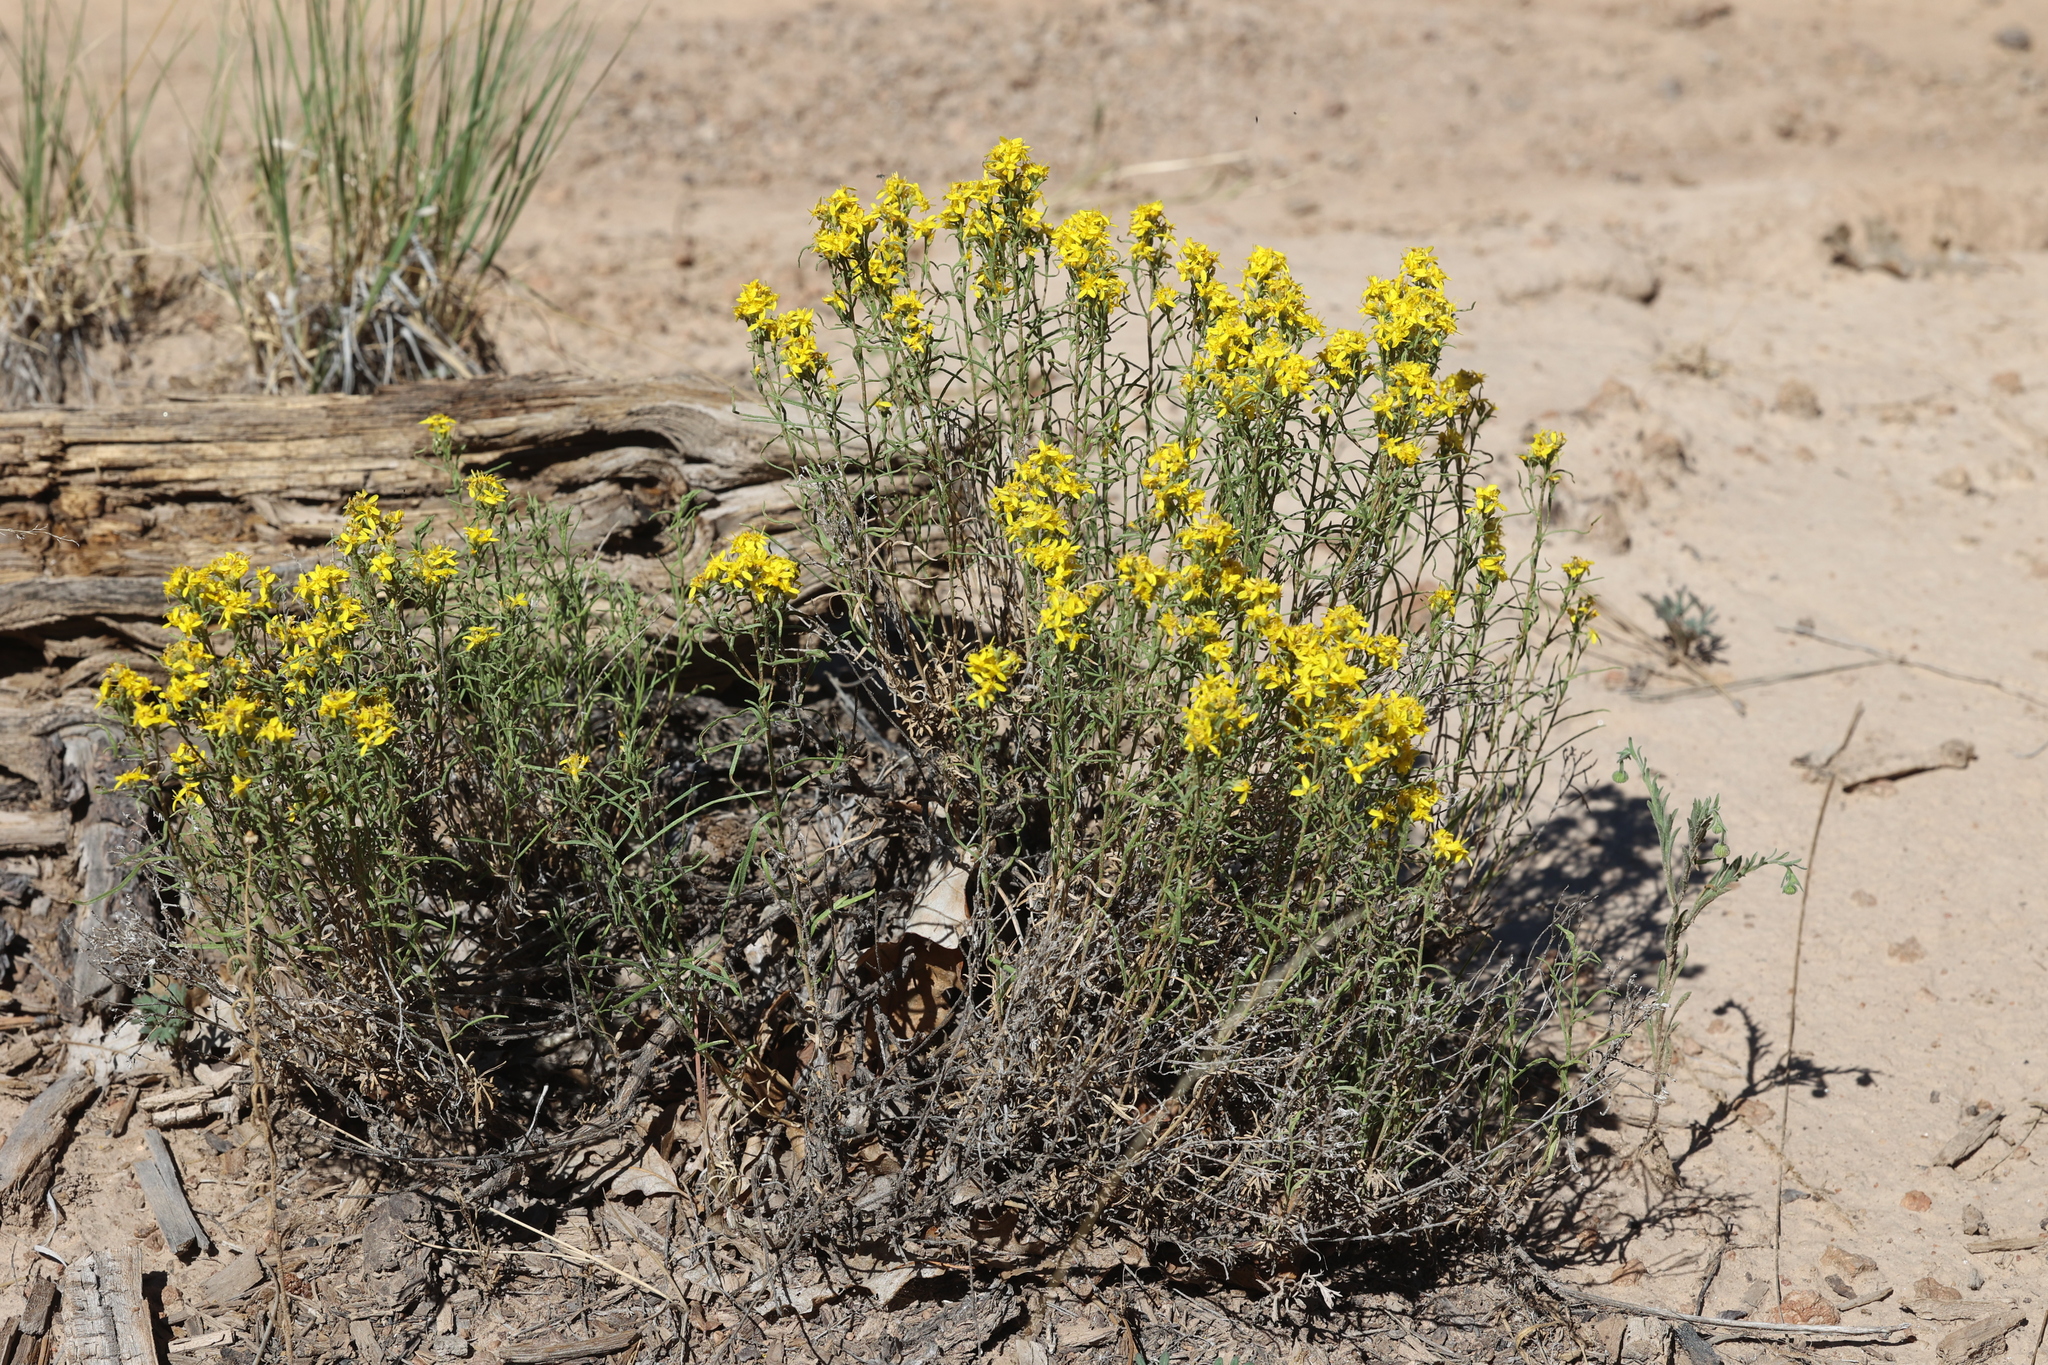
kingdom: Plantae
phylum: Tracheophyta
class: Magnoliopsida
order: Asterales
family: Asteraceae
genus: Gutierrezia
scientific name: Gutierrezia sarothrae
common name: Broom snakeweed
